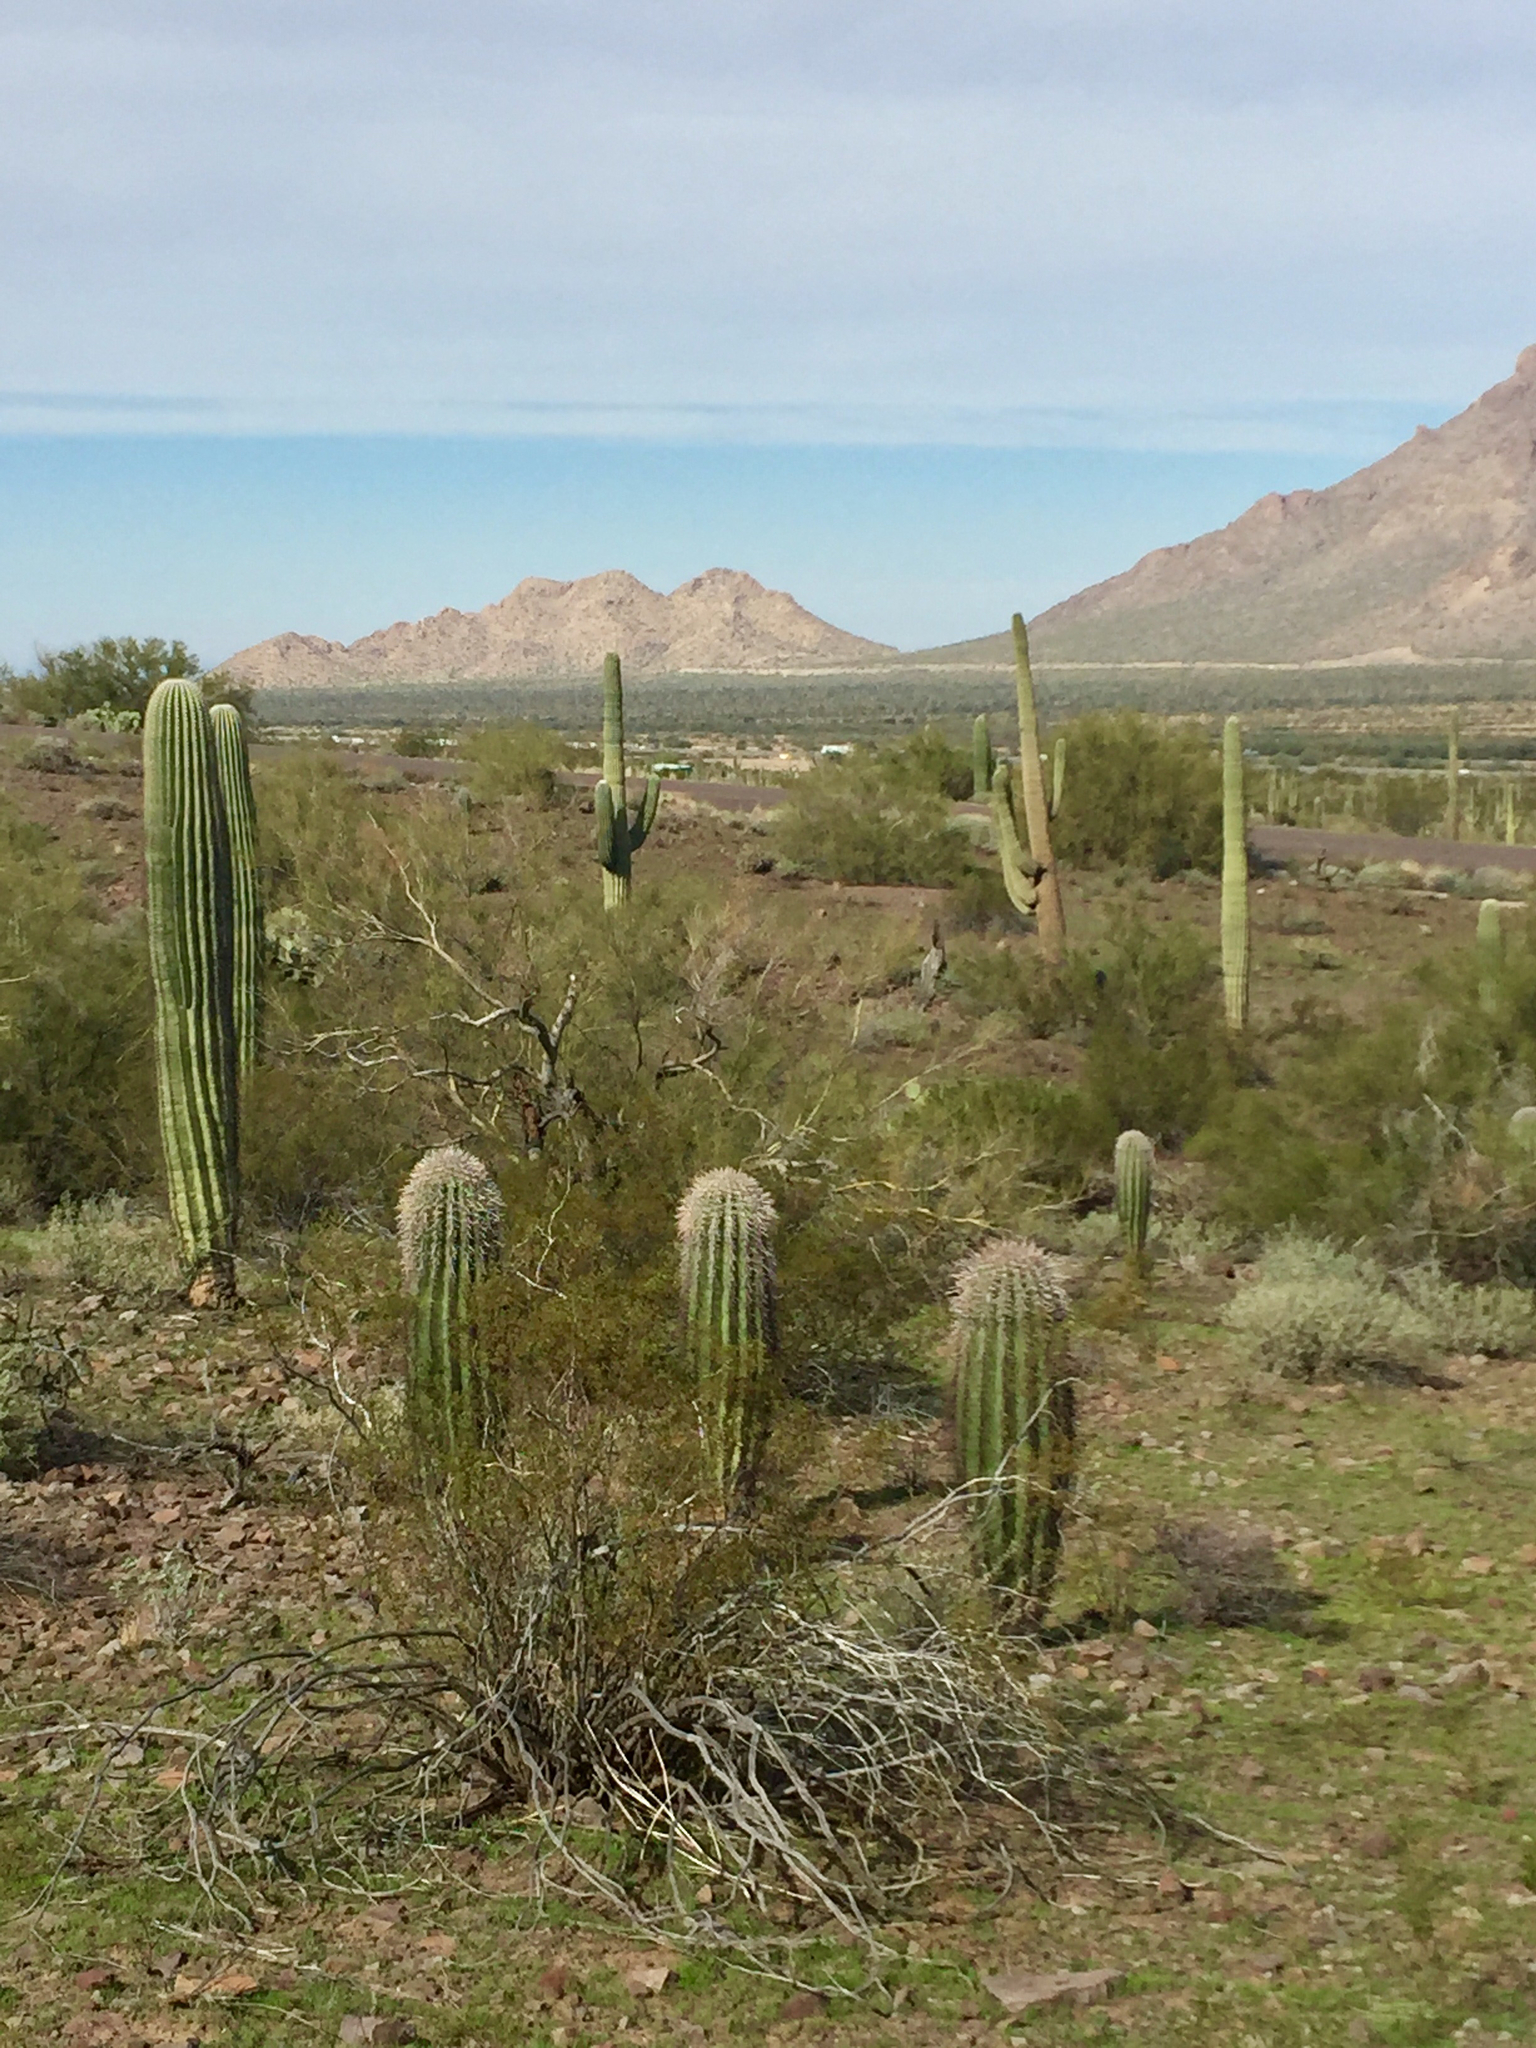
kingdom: Plantae
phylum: Tracheophyta
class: Magnoliopsida
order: Caryophyllales
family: Cactaceae
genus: Carnegiea
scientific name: Carnegiea gigantea
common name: Saguaro
